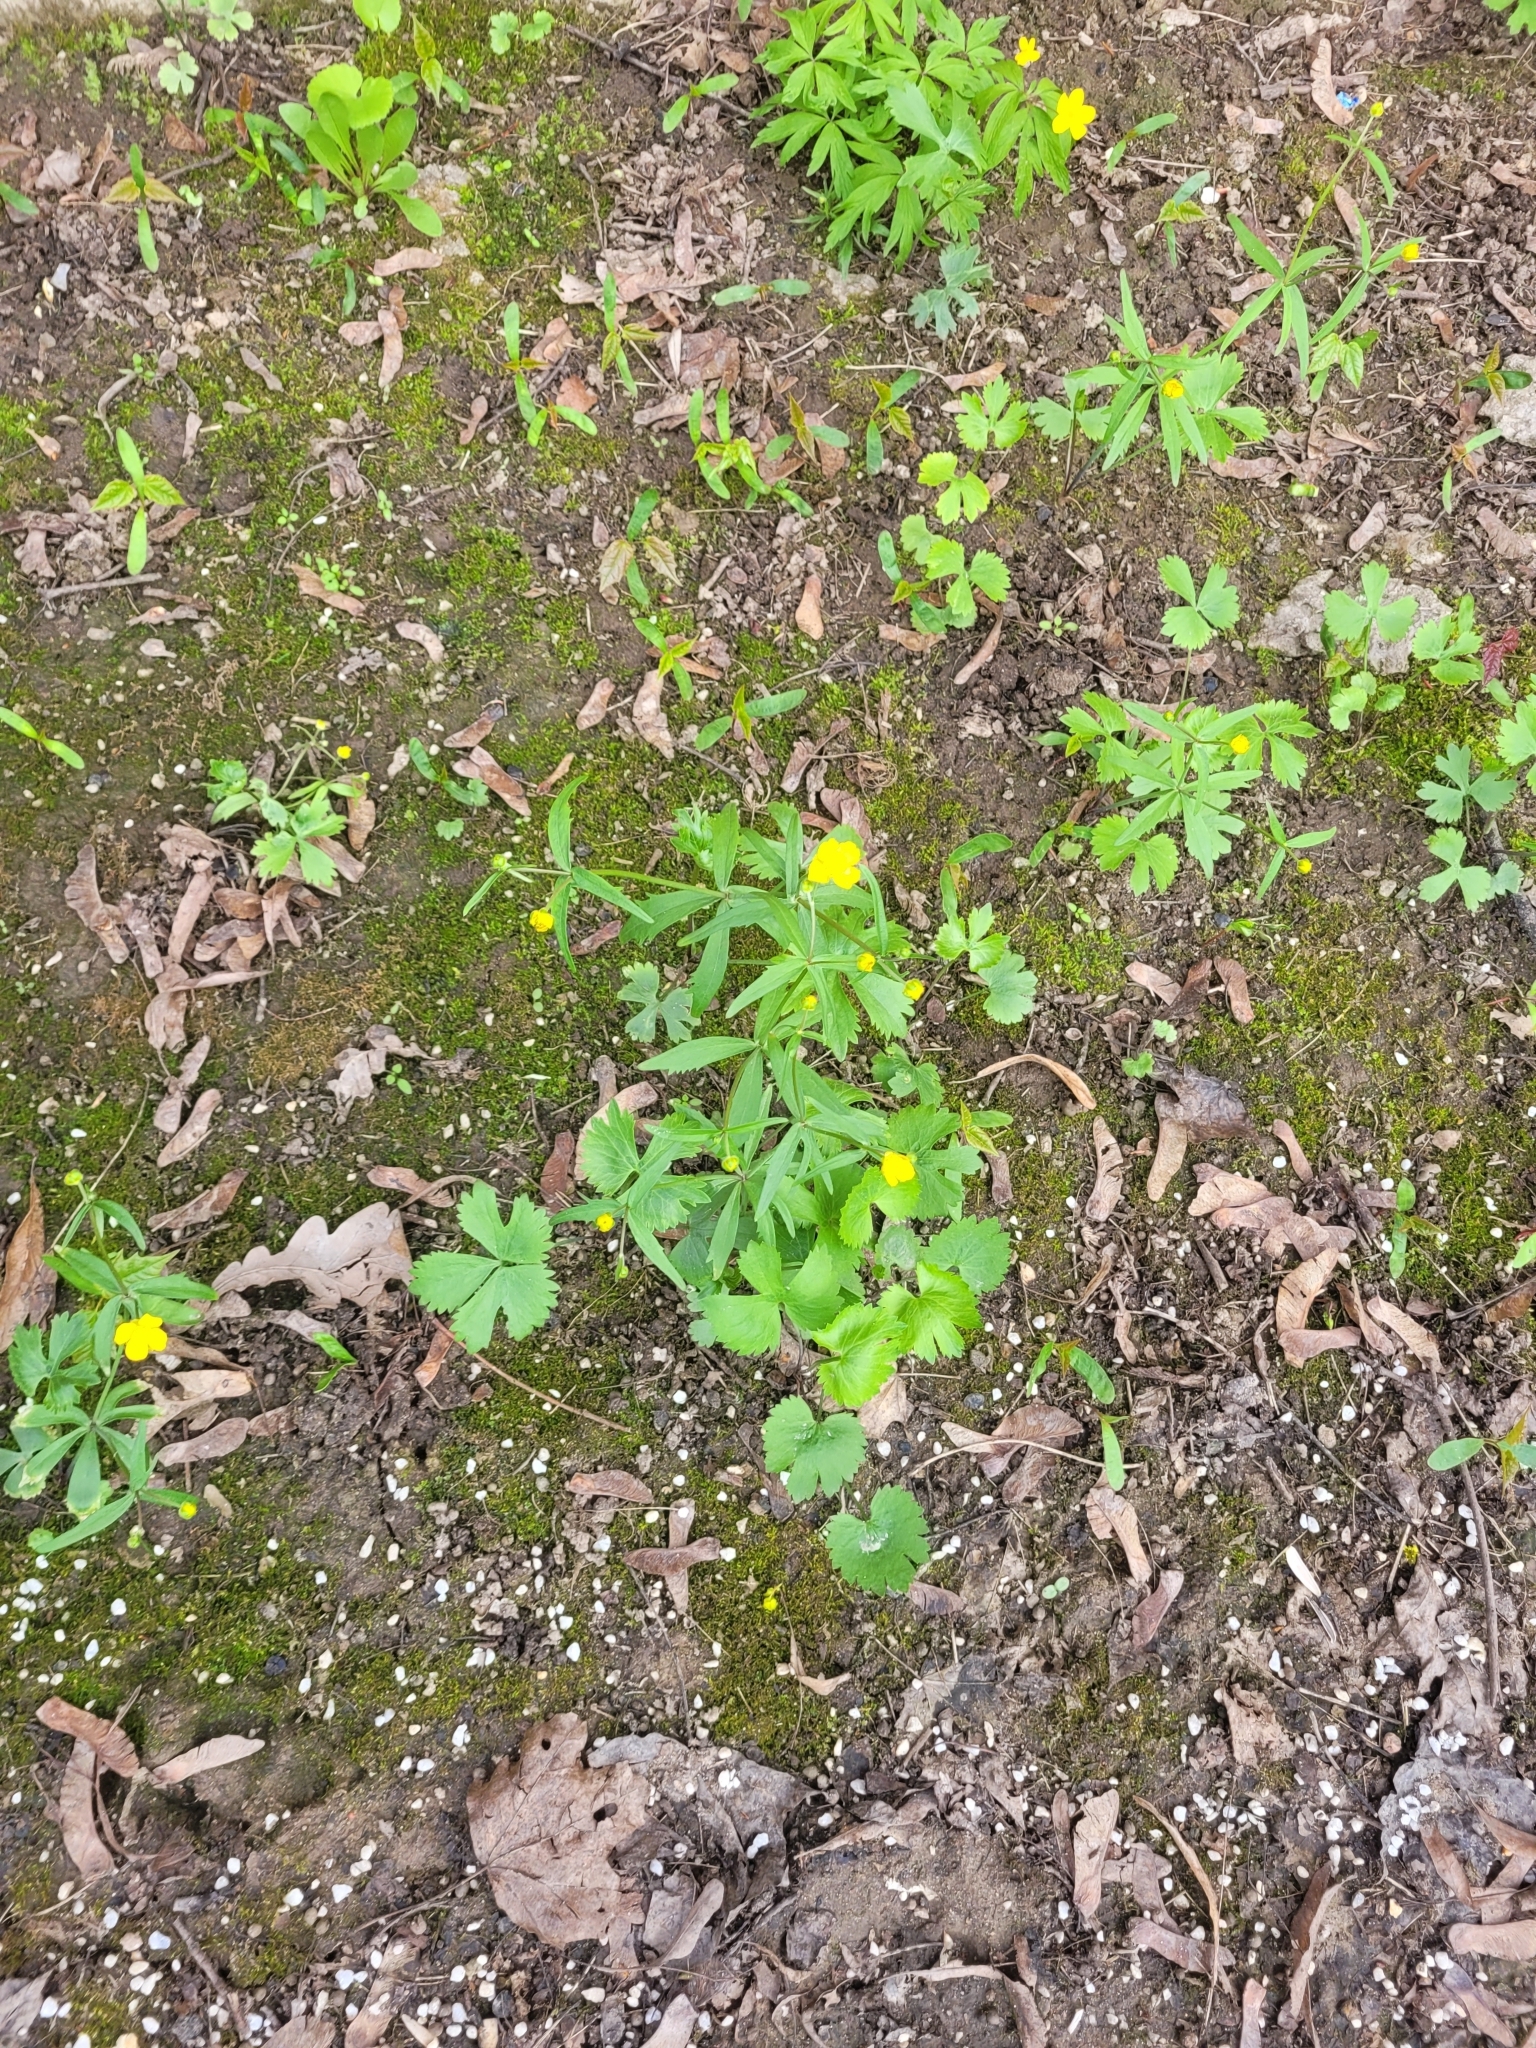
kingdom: Plantae
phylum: Tracheophyta
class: Magnoliopsida
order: Ranunculales
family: Ranunculaceae
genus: Ranunculus
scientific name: Ranunculus fallax
